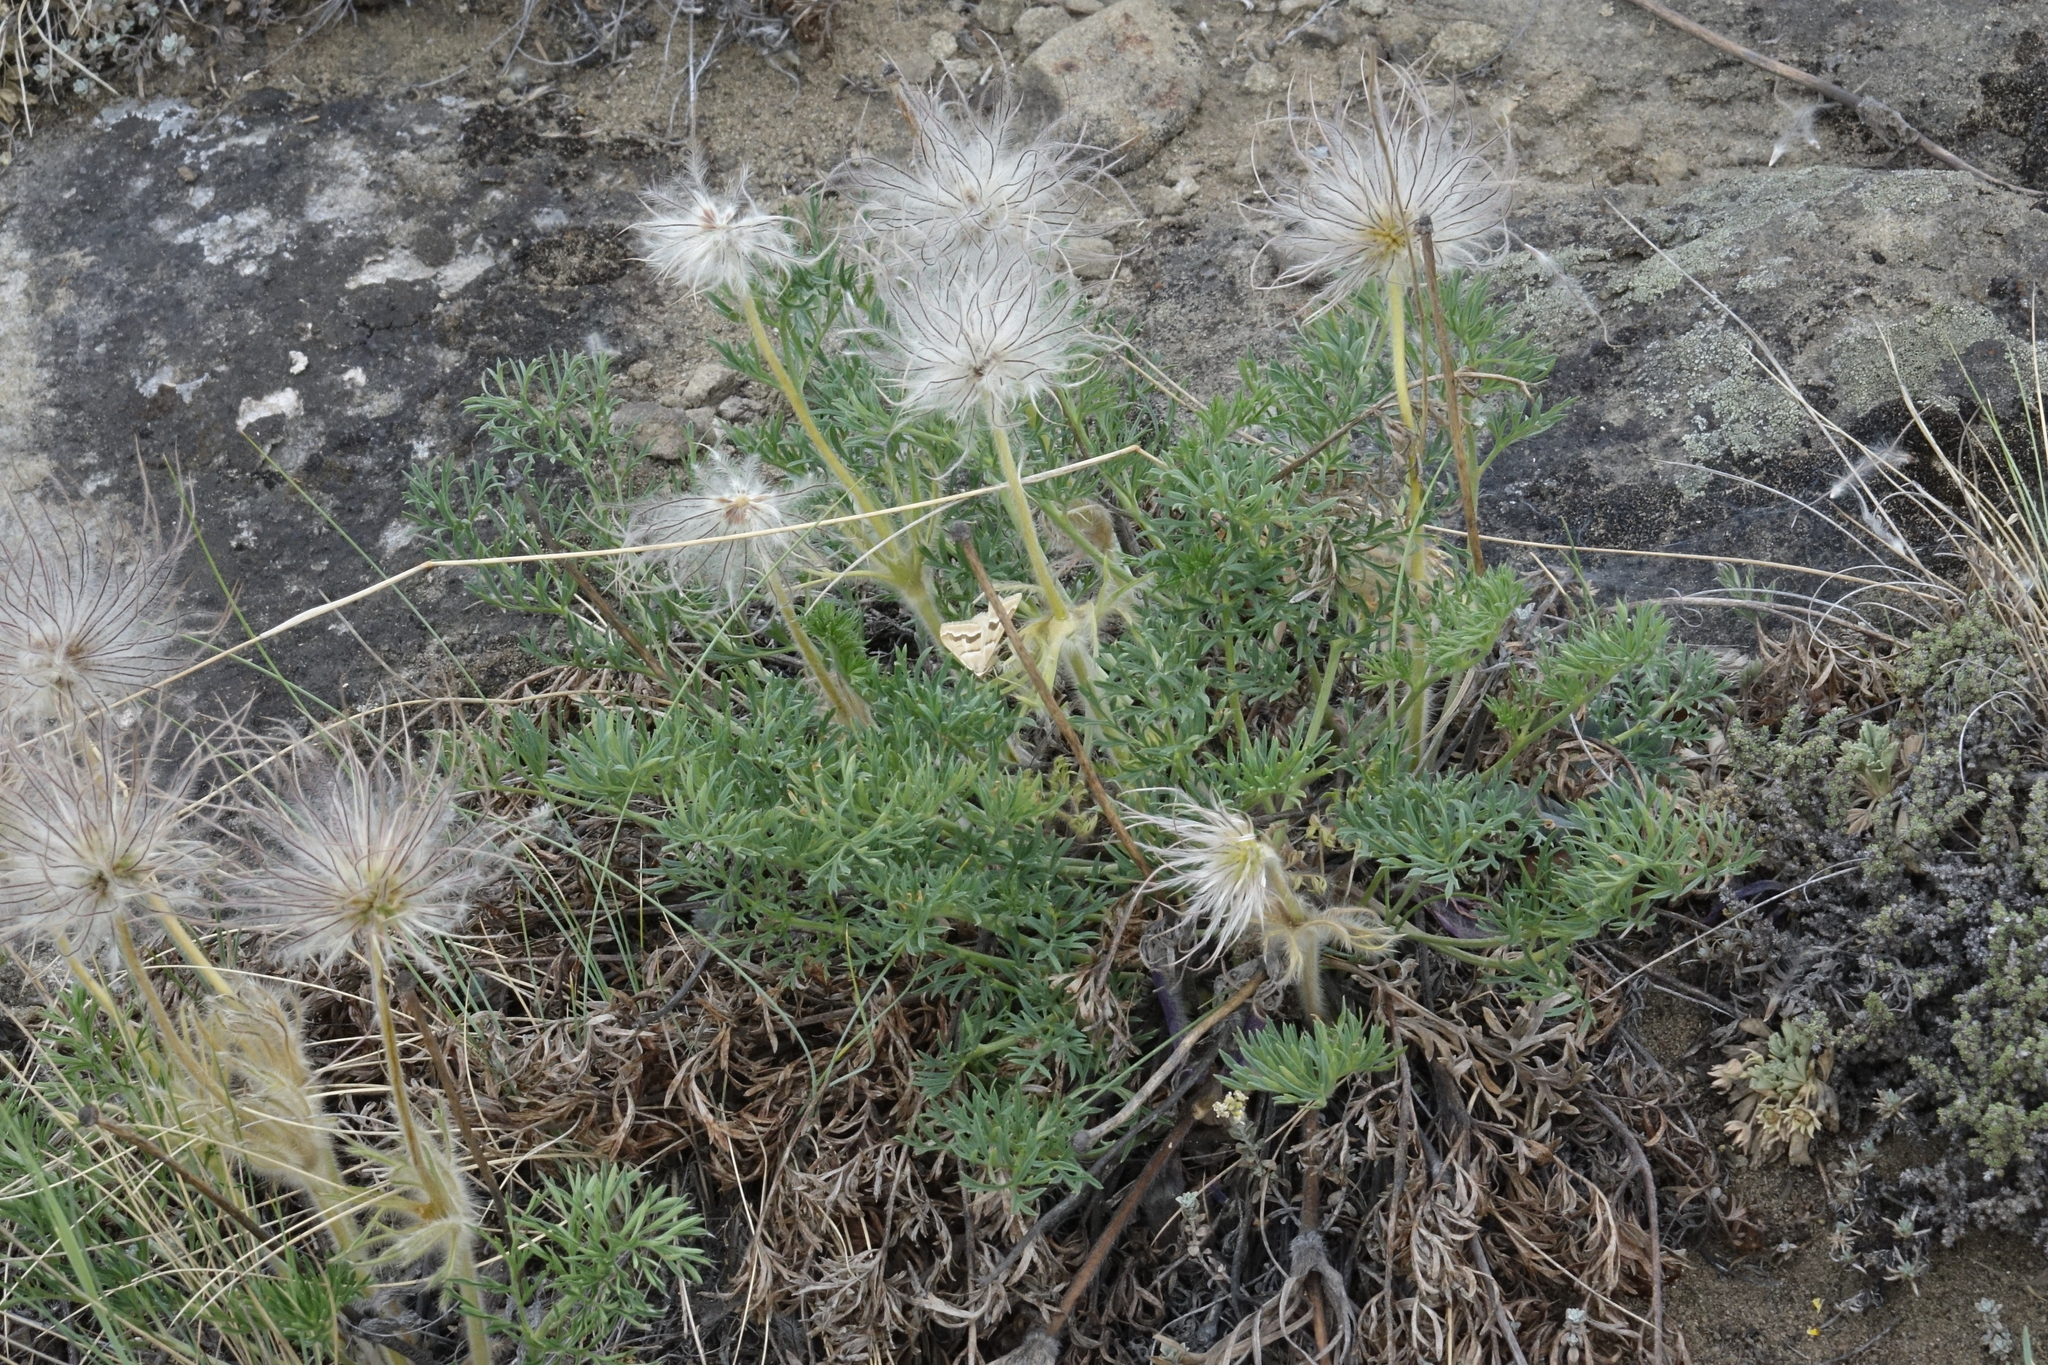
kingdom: Plantae
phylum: Tracheophyta
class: Magnoliopsida
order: Ranunculales
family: Ranunculaceae
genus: Pulsatilla
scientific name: Pulsatilla turczaninovii
